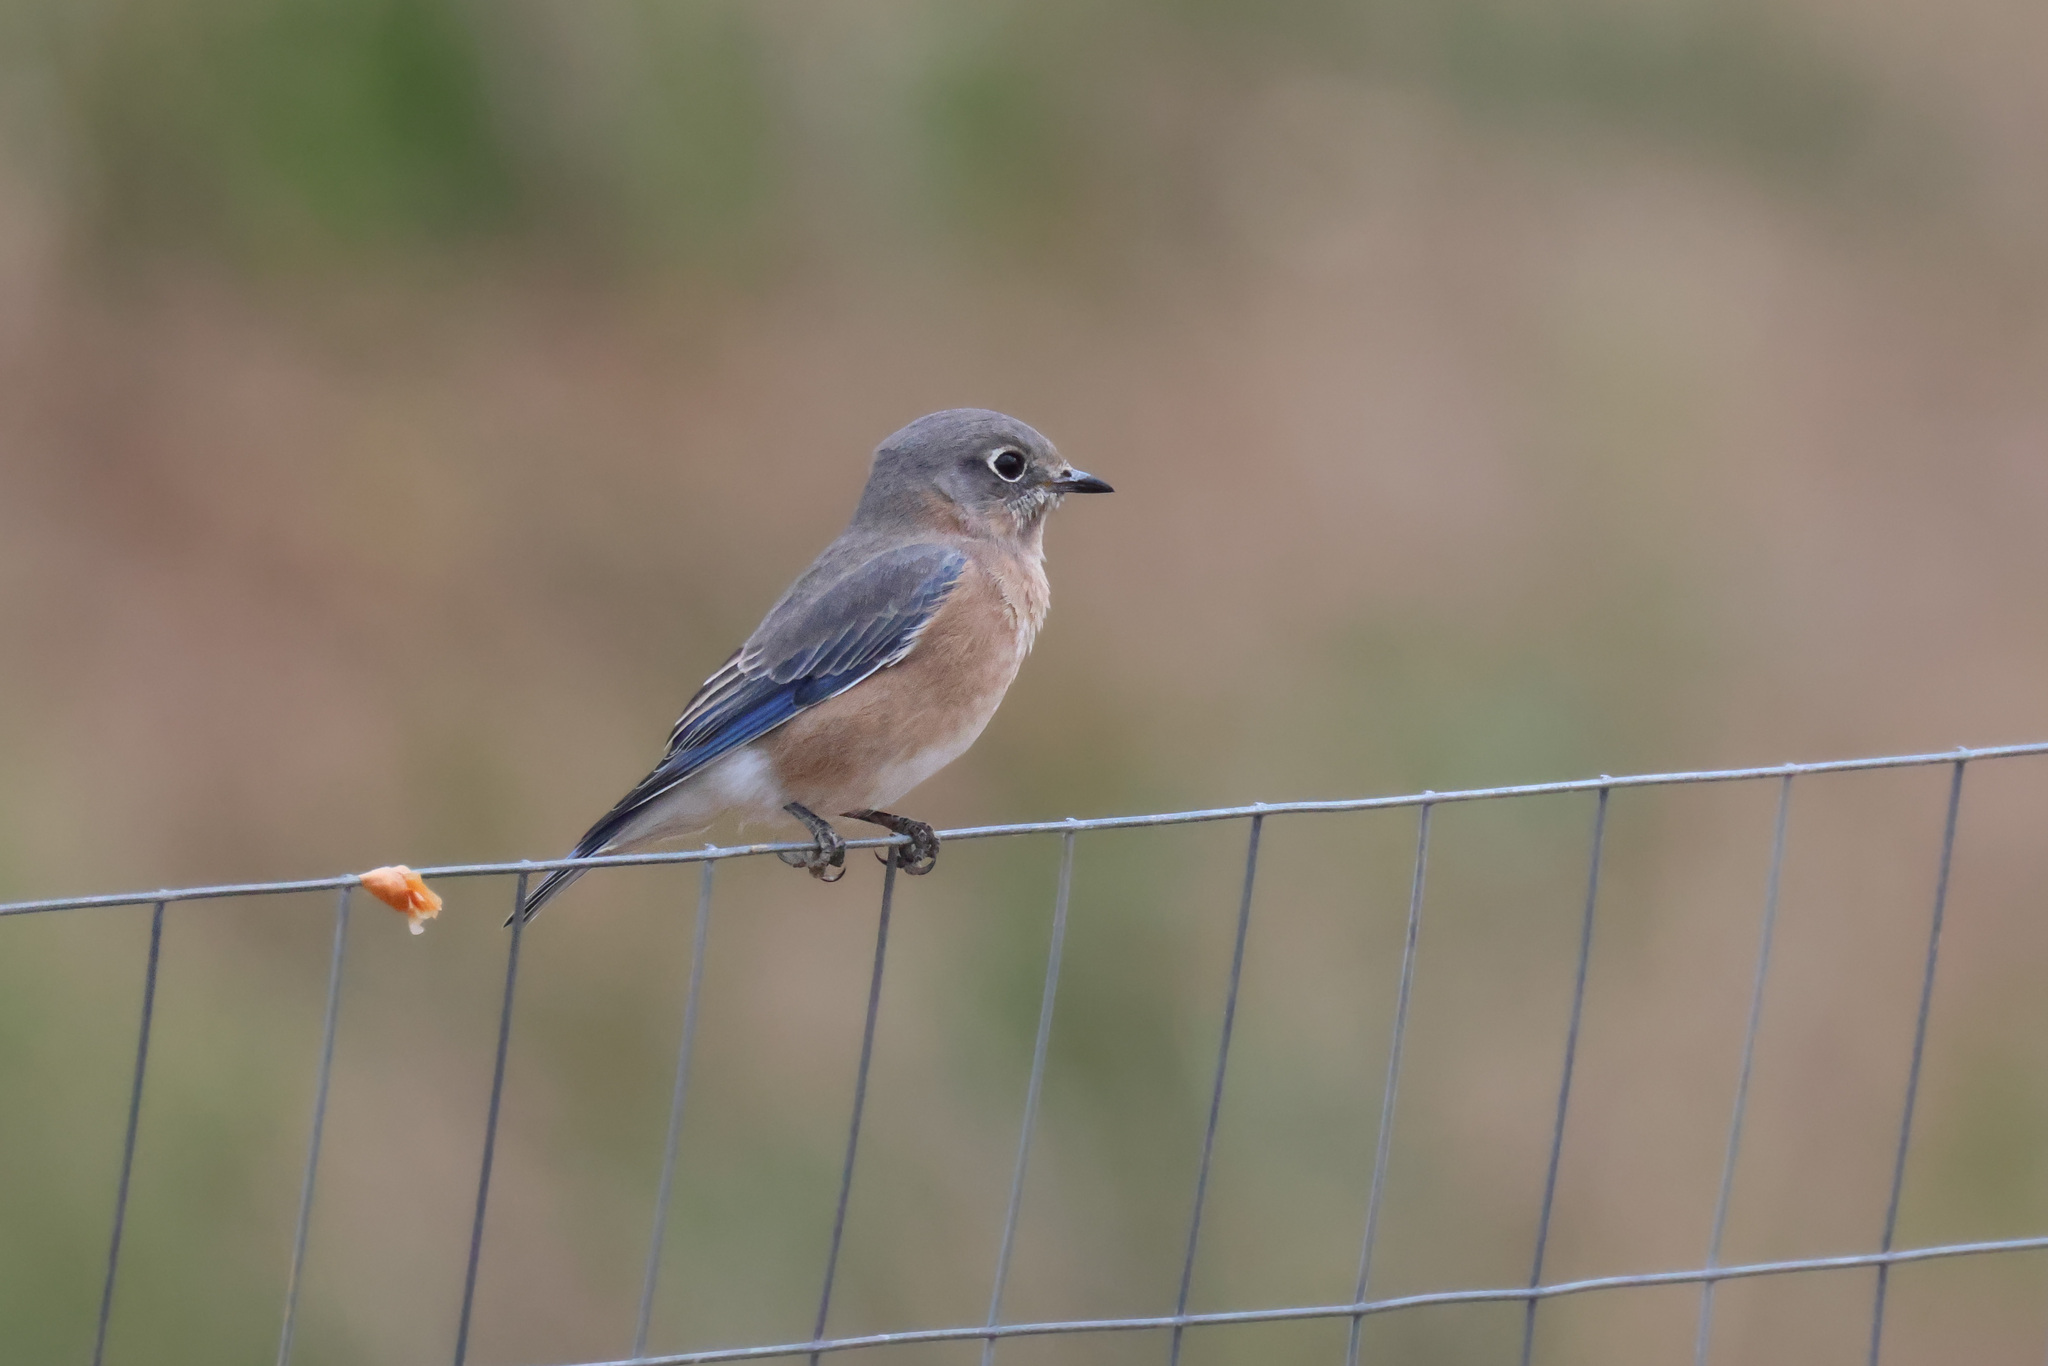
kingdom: Animalia
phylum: Chordata
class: Aves
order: Passeriformes
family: Turdidae
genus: Sialia
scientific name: Sialia sialis
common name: Eastern bluebird
